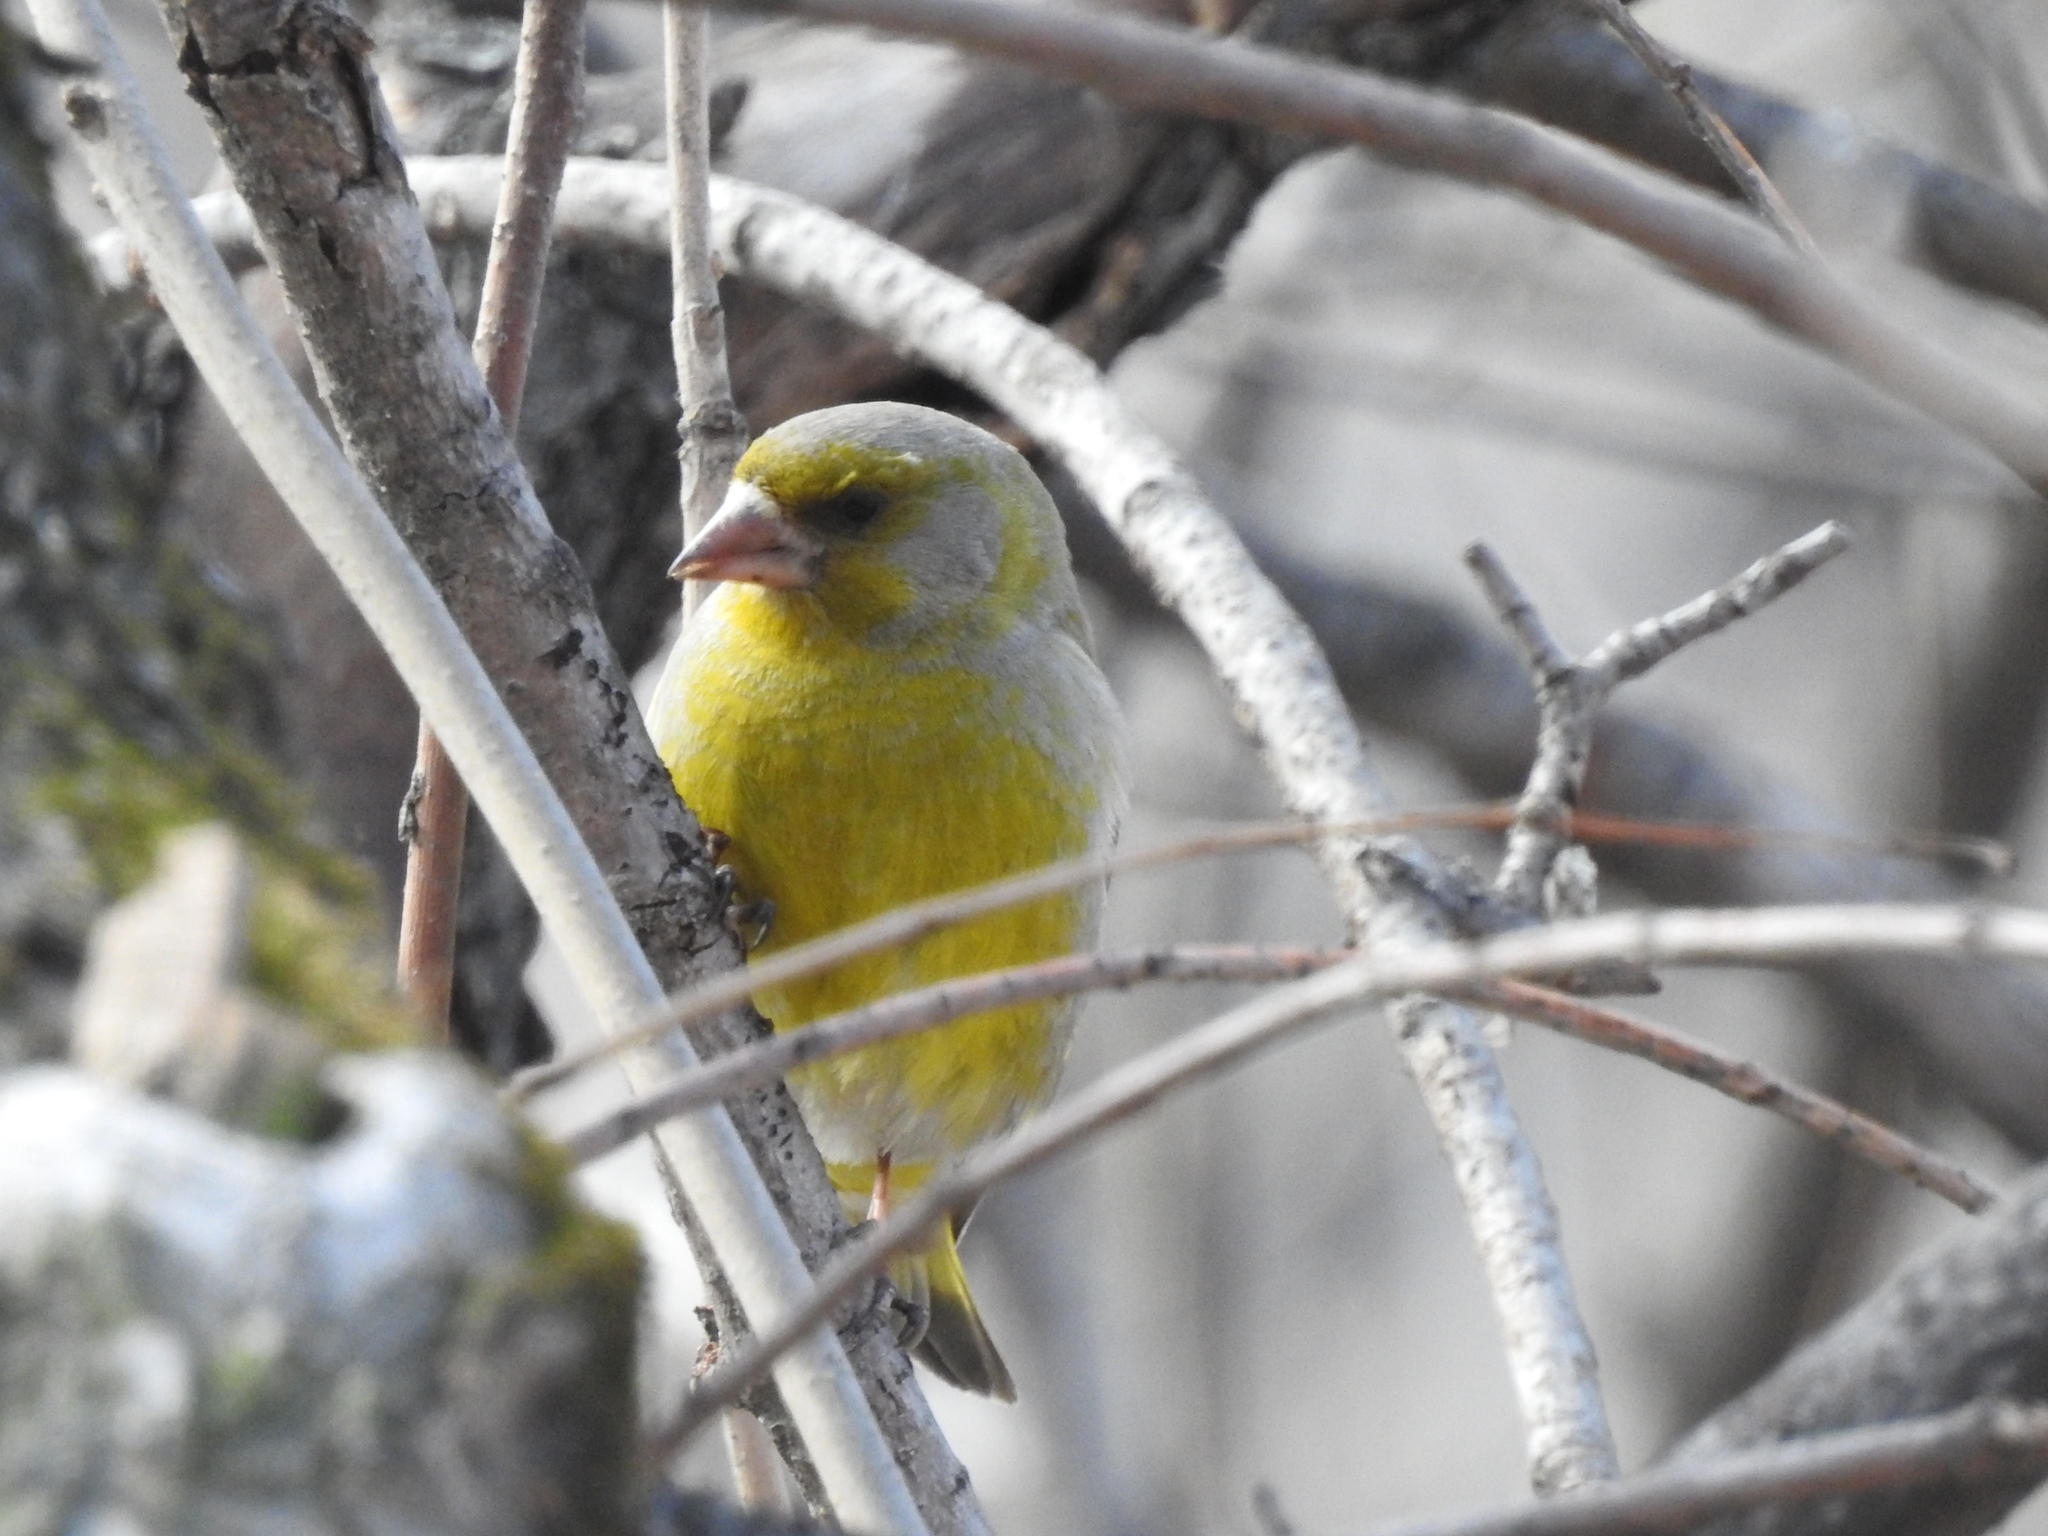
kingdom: Plantae
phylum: Tracheophyta
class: Liliopsida
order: Poales
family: Poaceae
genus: Chloris
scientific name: Chloris chloris
